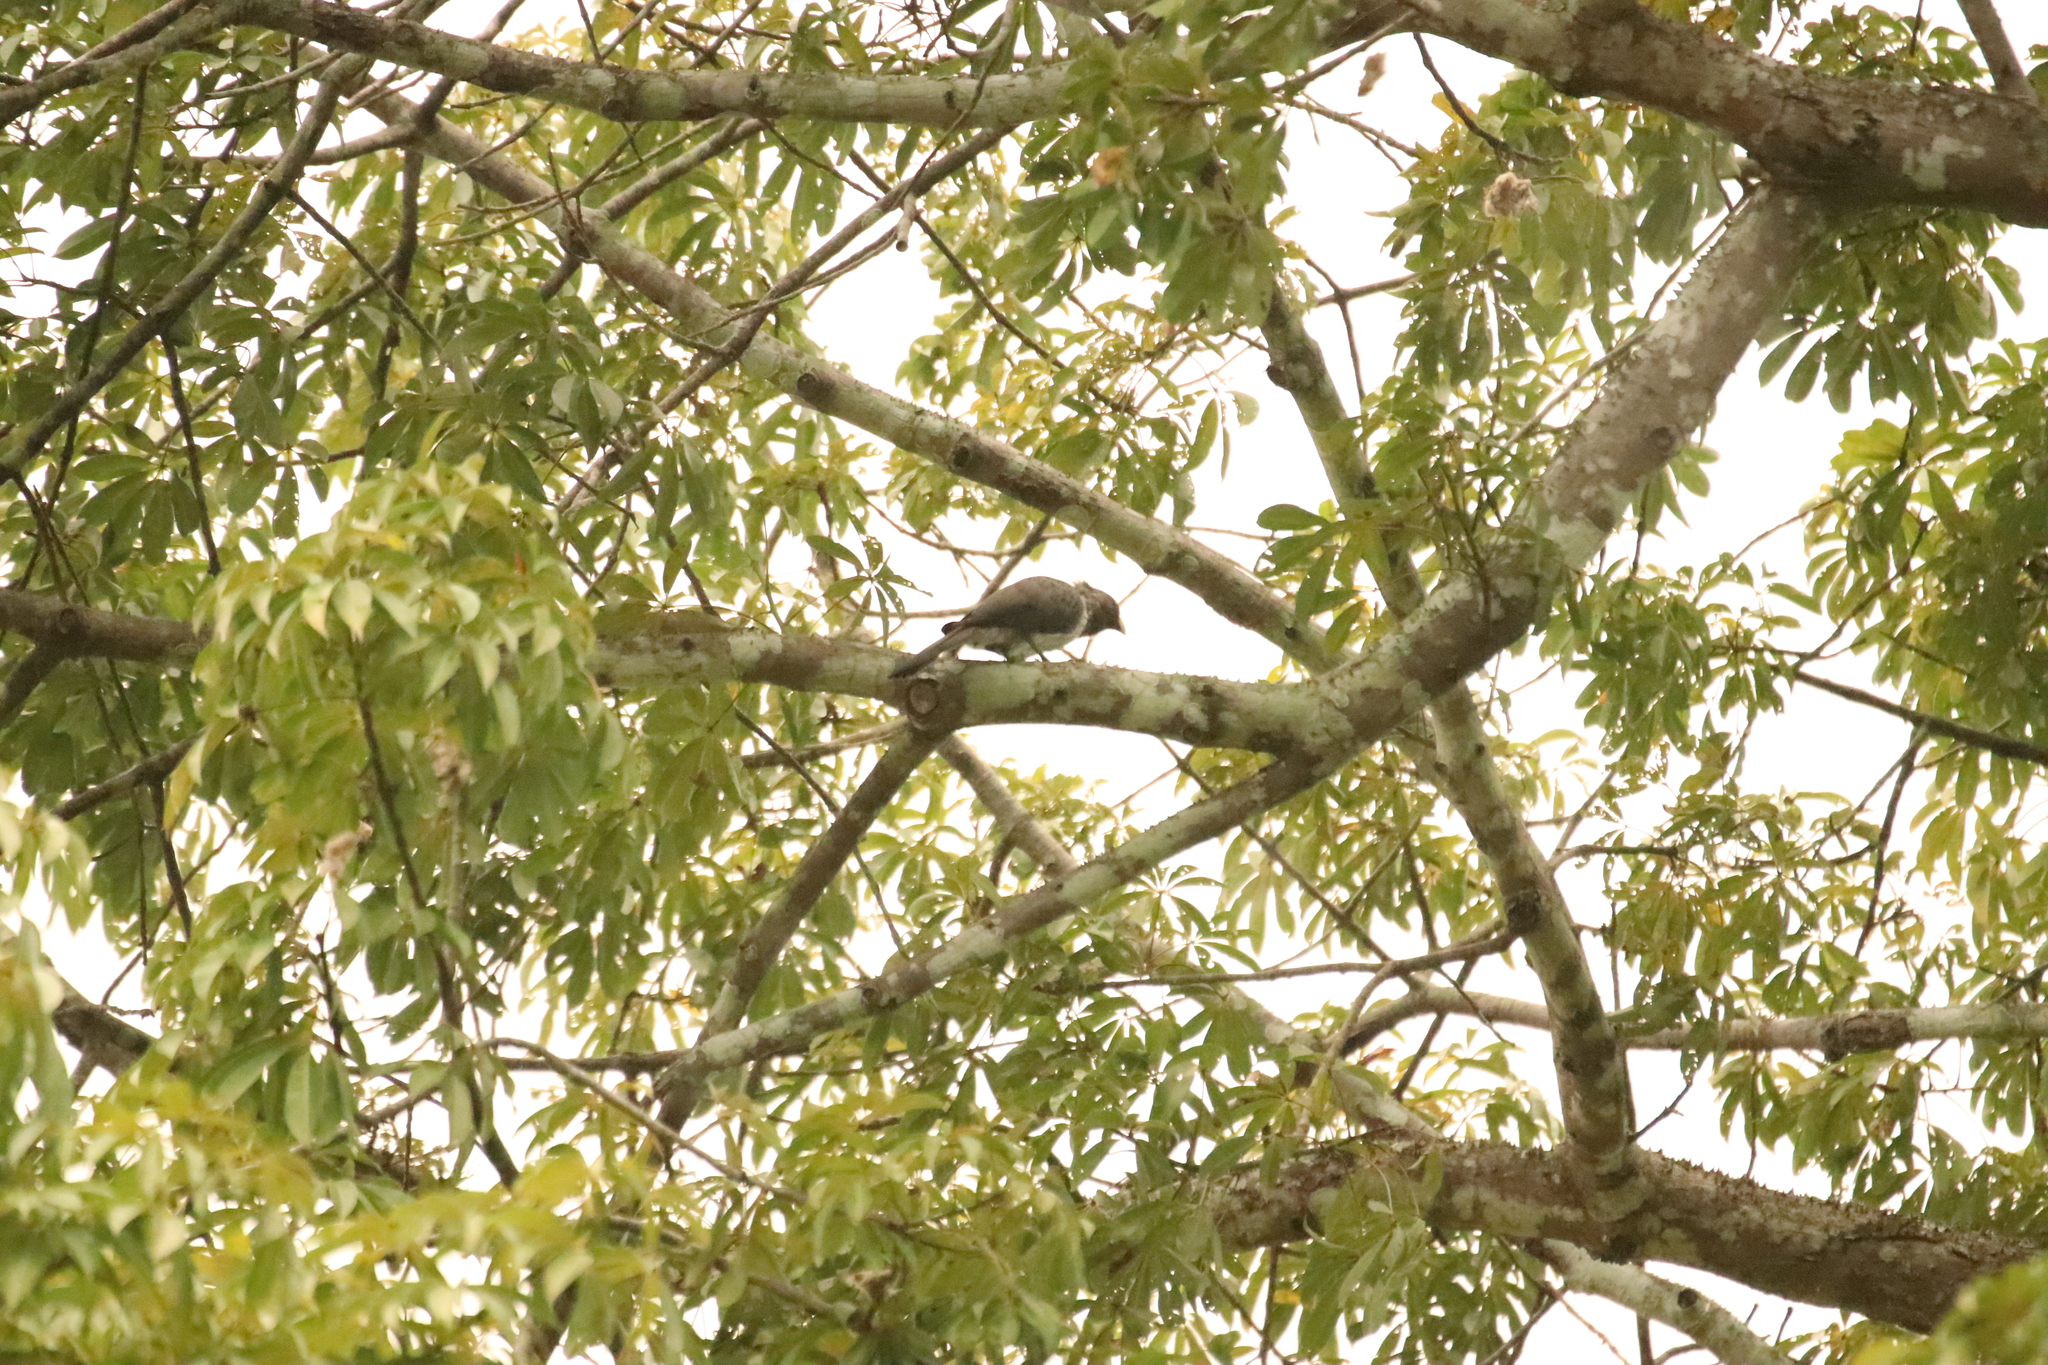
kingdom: Animalia
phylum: Chordata
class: Aves
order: Musophagiformes
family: Musophagidae
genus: Crinifer
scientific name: Crinifer piscator
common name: Western plantain-eater
